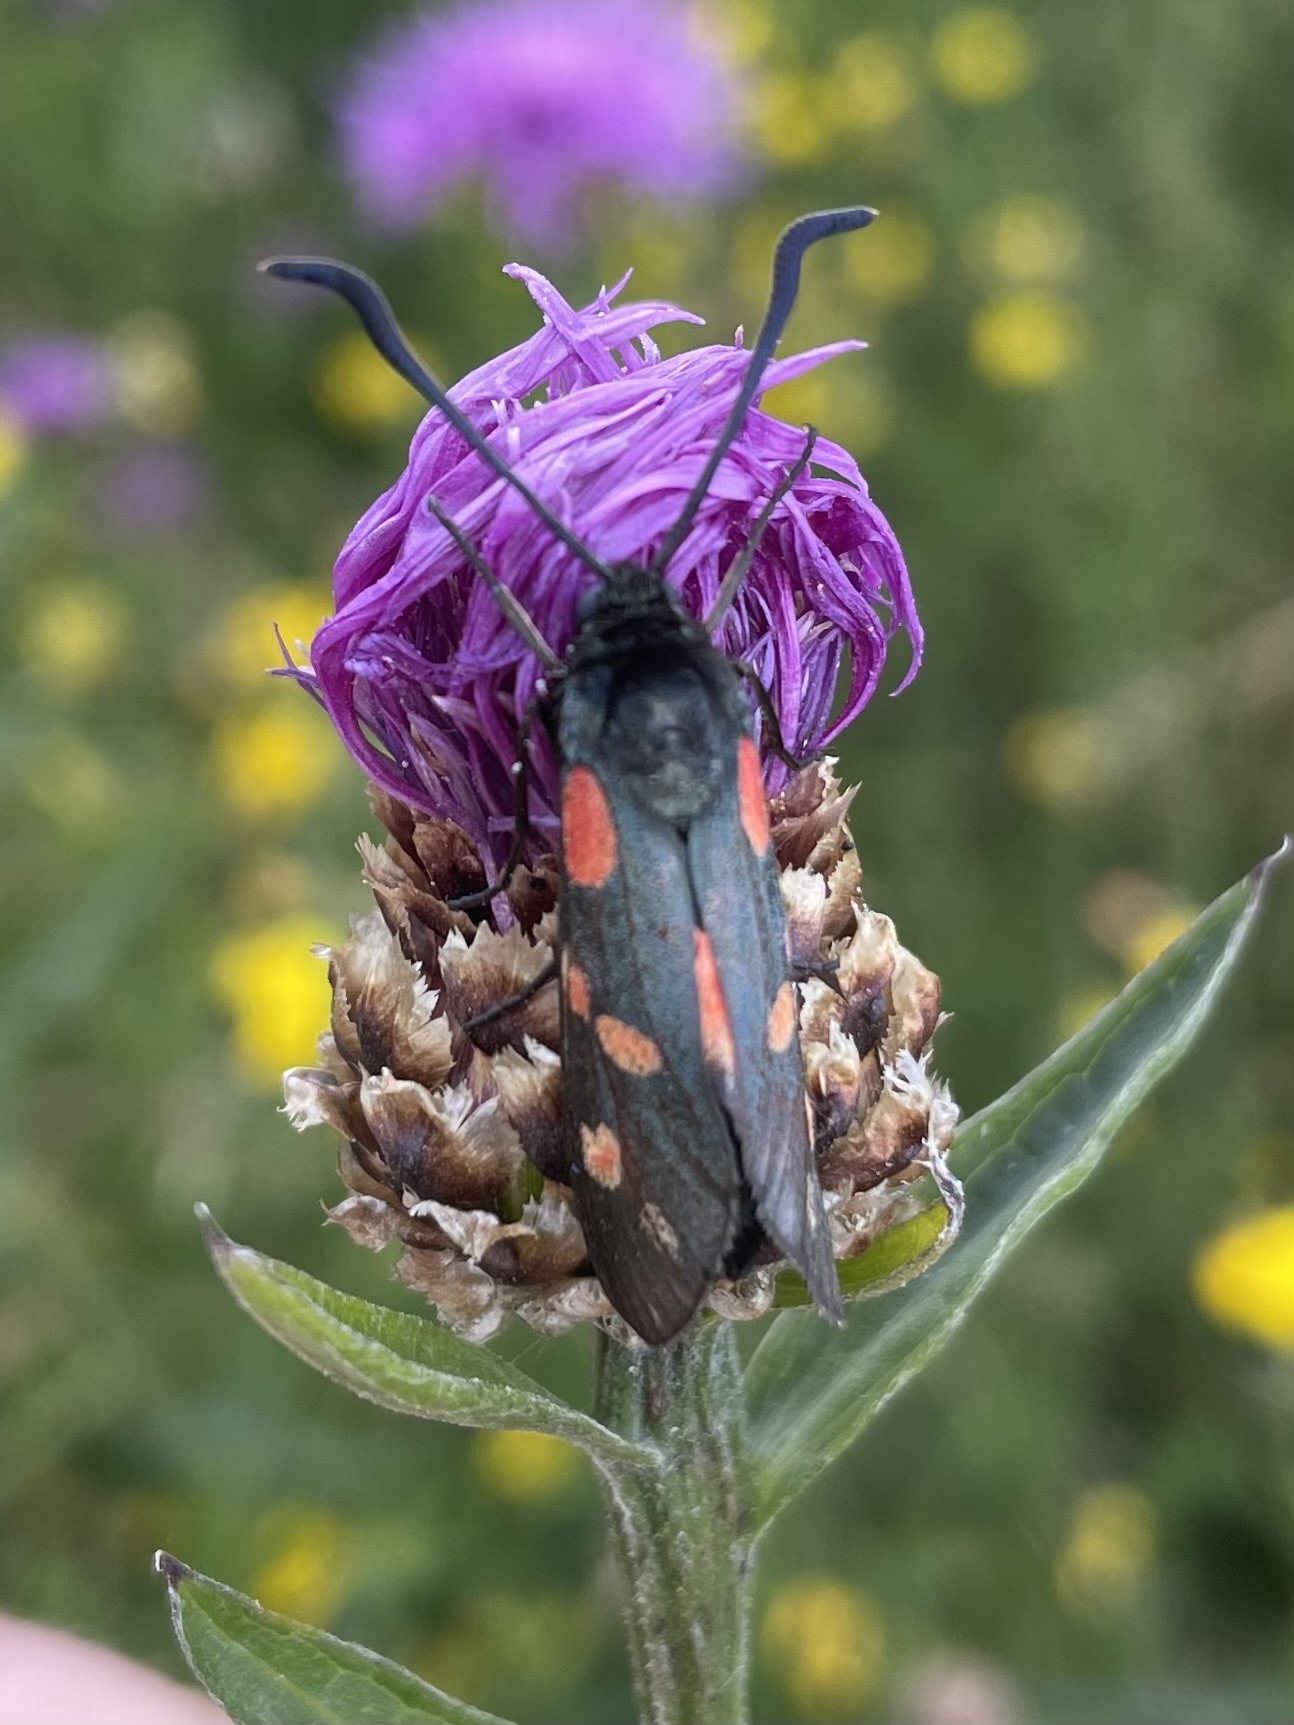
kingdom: Animalia
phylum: Arthropoda
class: Insecta
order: Lepidoptera
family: Zygaenidae
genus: Zygaena
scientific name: Zygaena filipendulae
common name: Six-spot burnet
